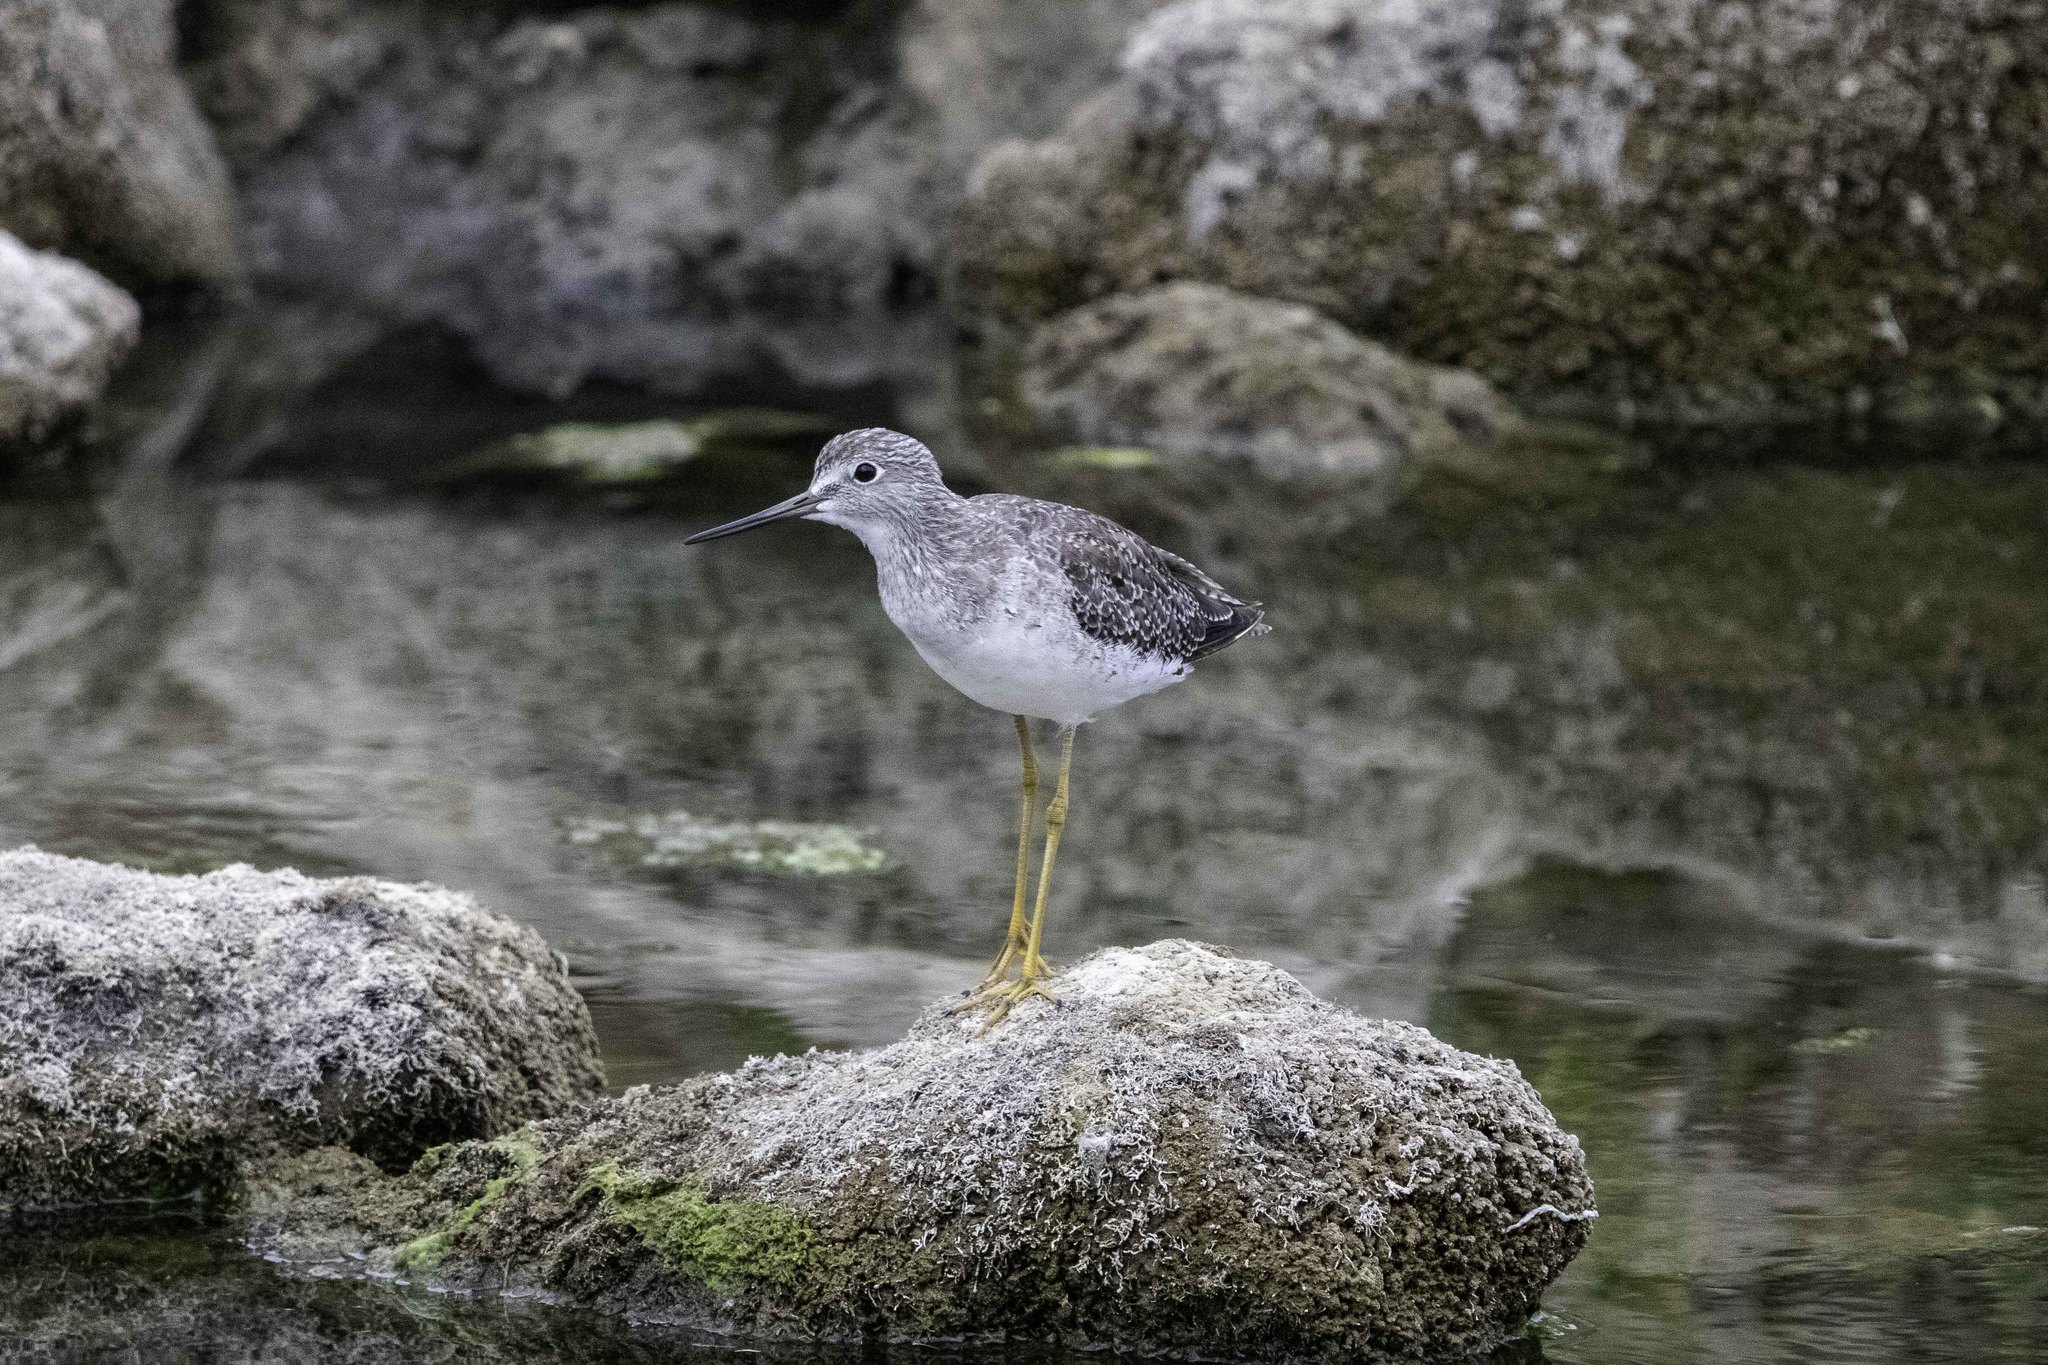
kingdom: Animalia
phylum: Chordata
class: Aves
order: Charadriiformes
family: Scolopacidae
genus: Tringa
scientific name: Tringa melanoleuca
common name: Greater yellowlegs
